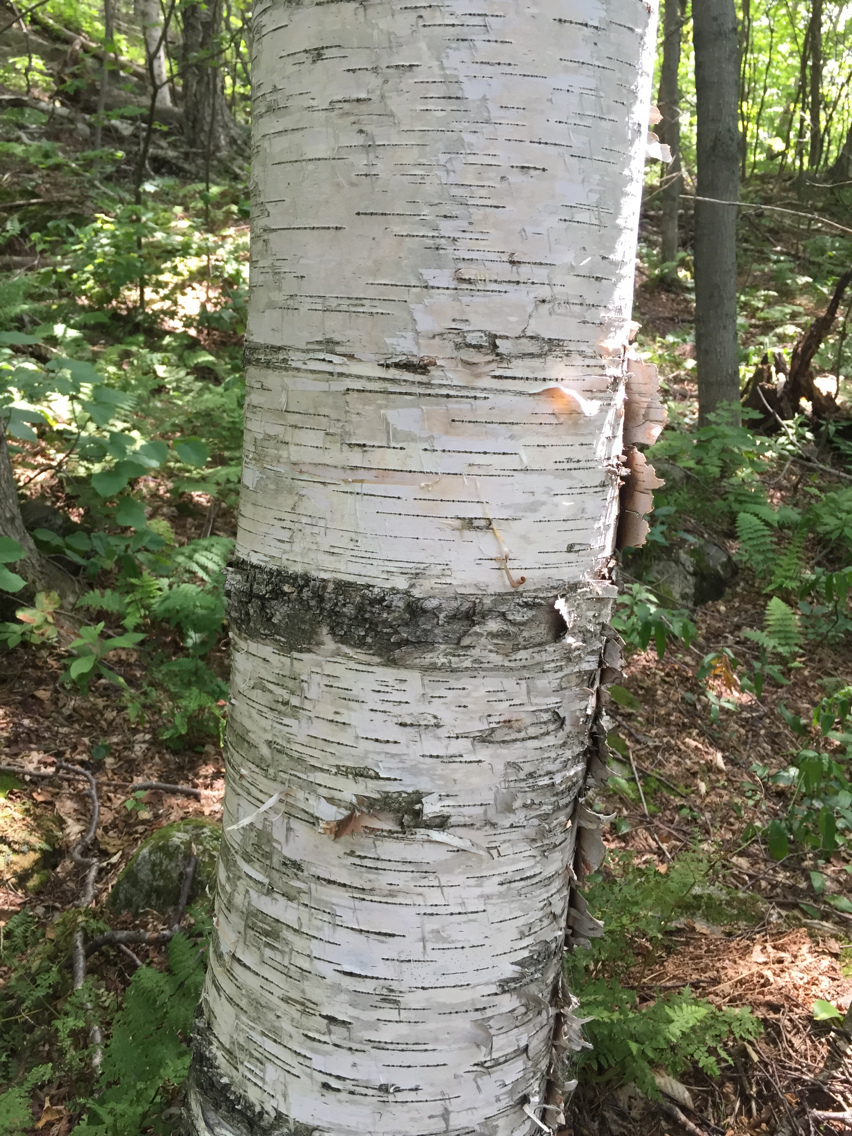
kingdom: Plantae
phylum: Tracheophyta
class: Magnoliopsida
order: Fagales
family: Betulaceae
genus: Betula
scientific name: Betula papyrifera
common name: Paper birch
